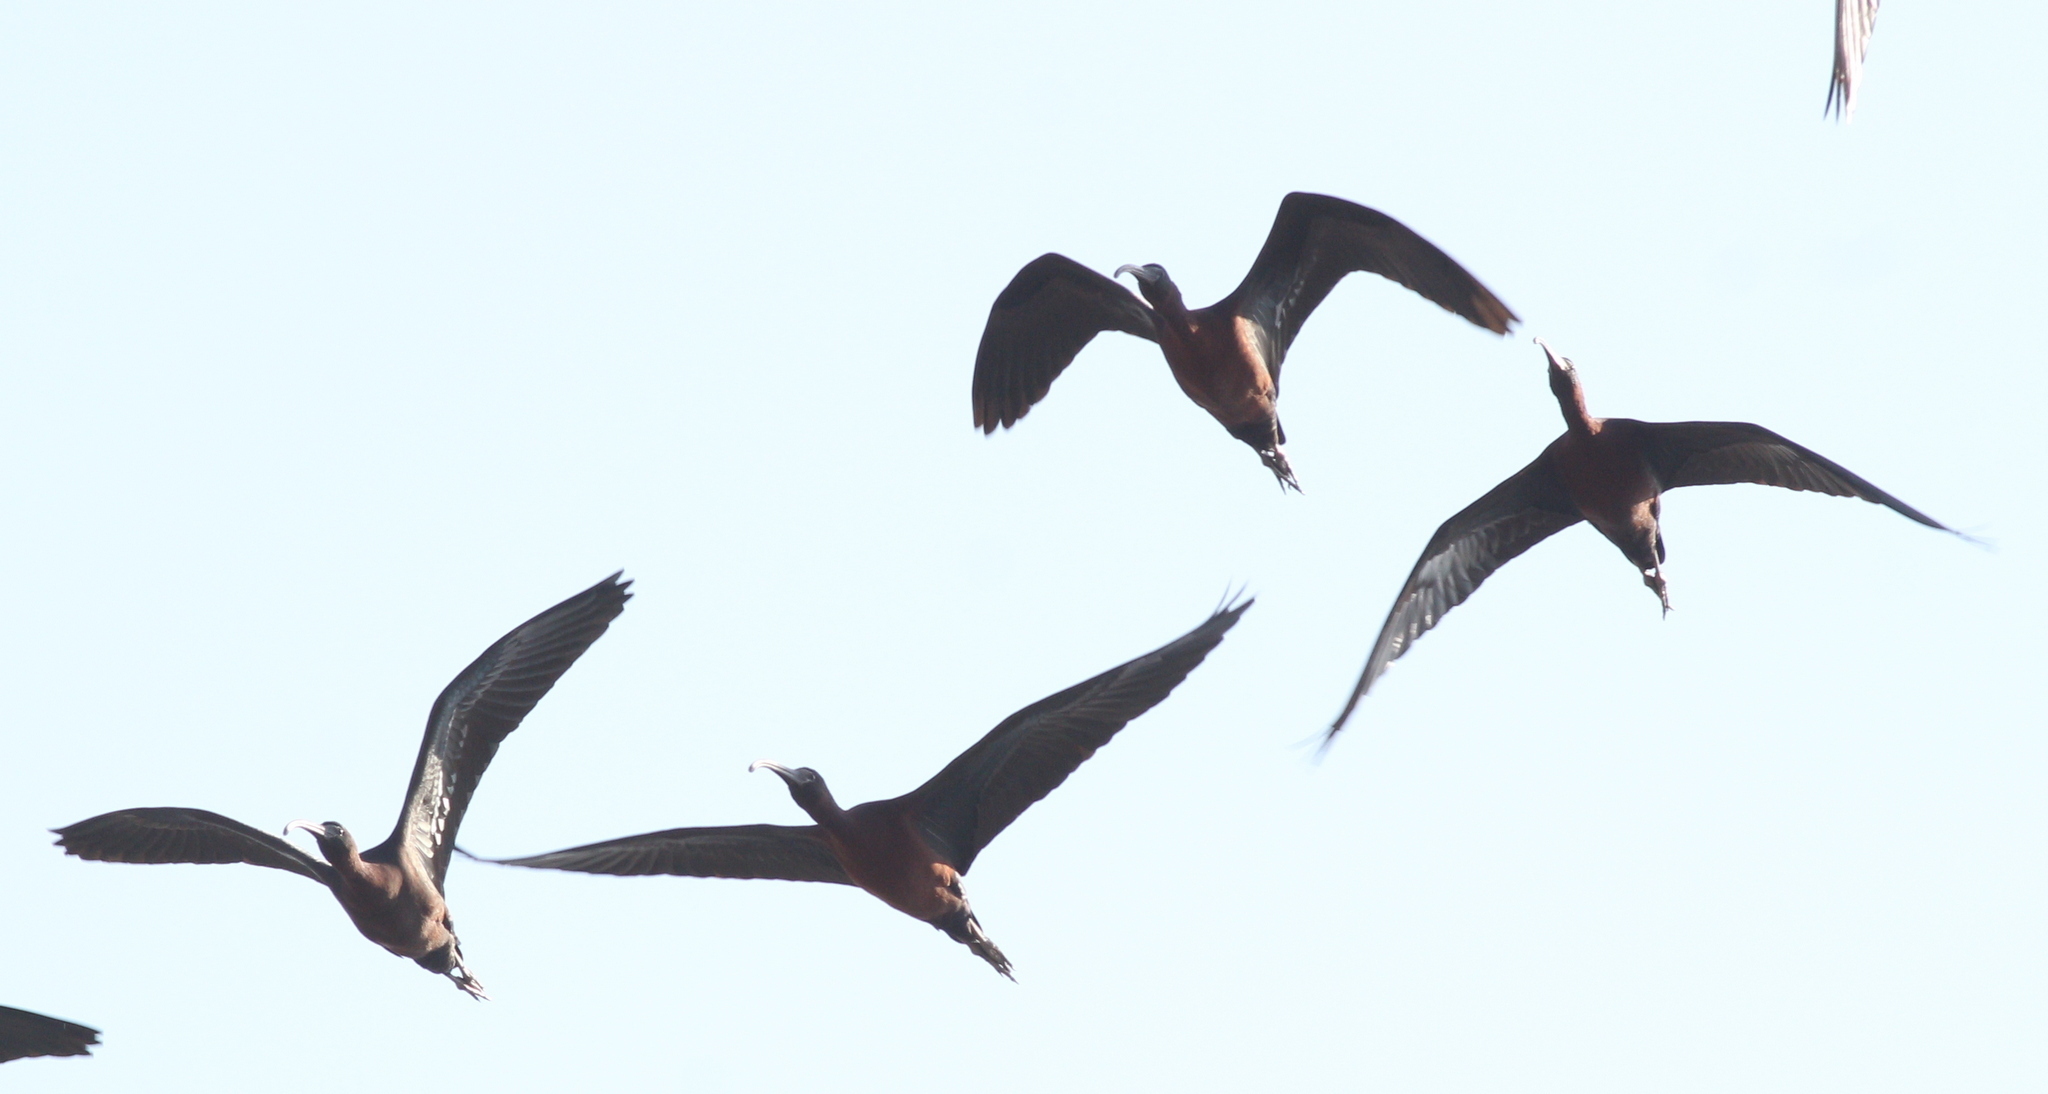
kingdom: Animalia
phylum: Chordata
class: Aves
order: Pelecaniformes
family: Threskiornithidae
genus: Plegadis
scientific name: Plegadis falcinellus
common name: Glossy ibis
